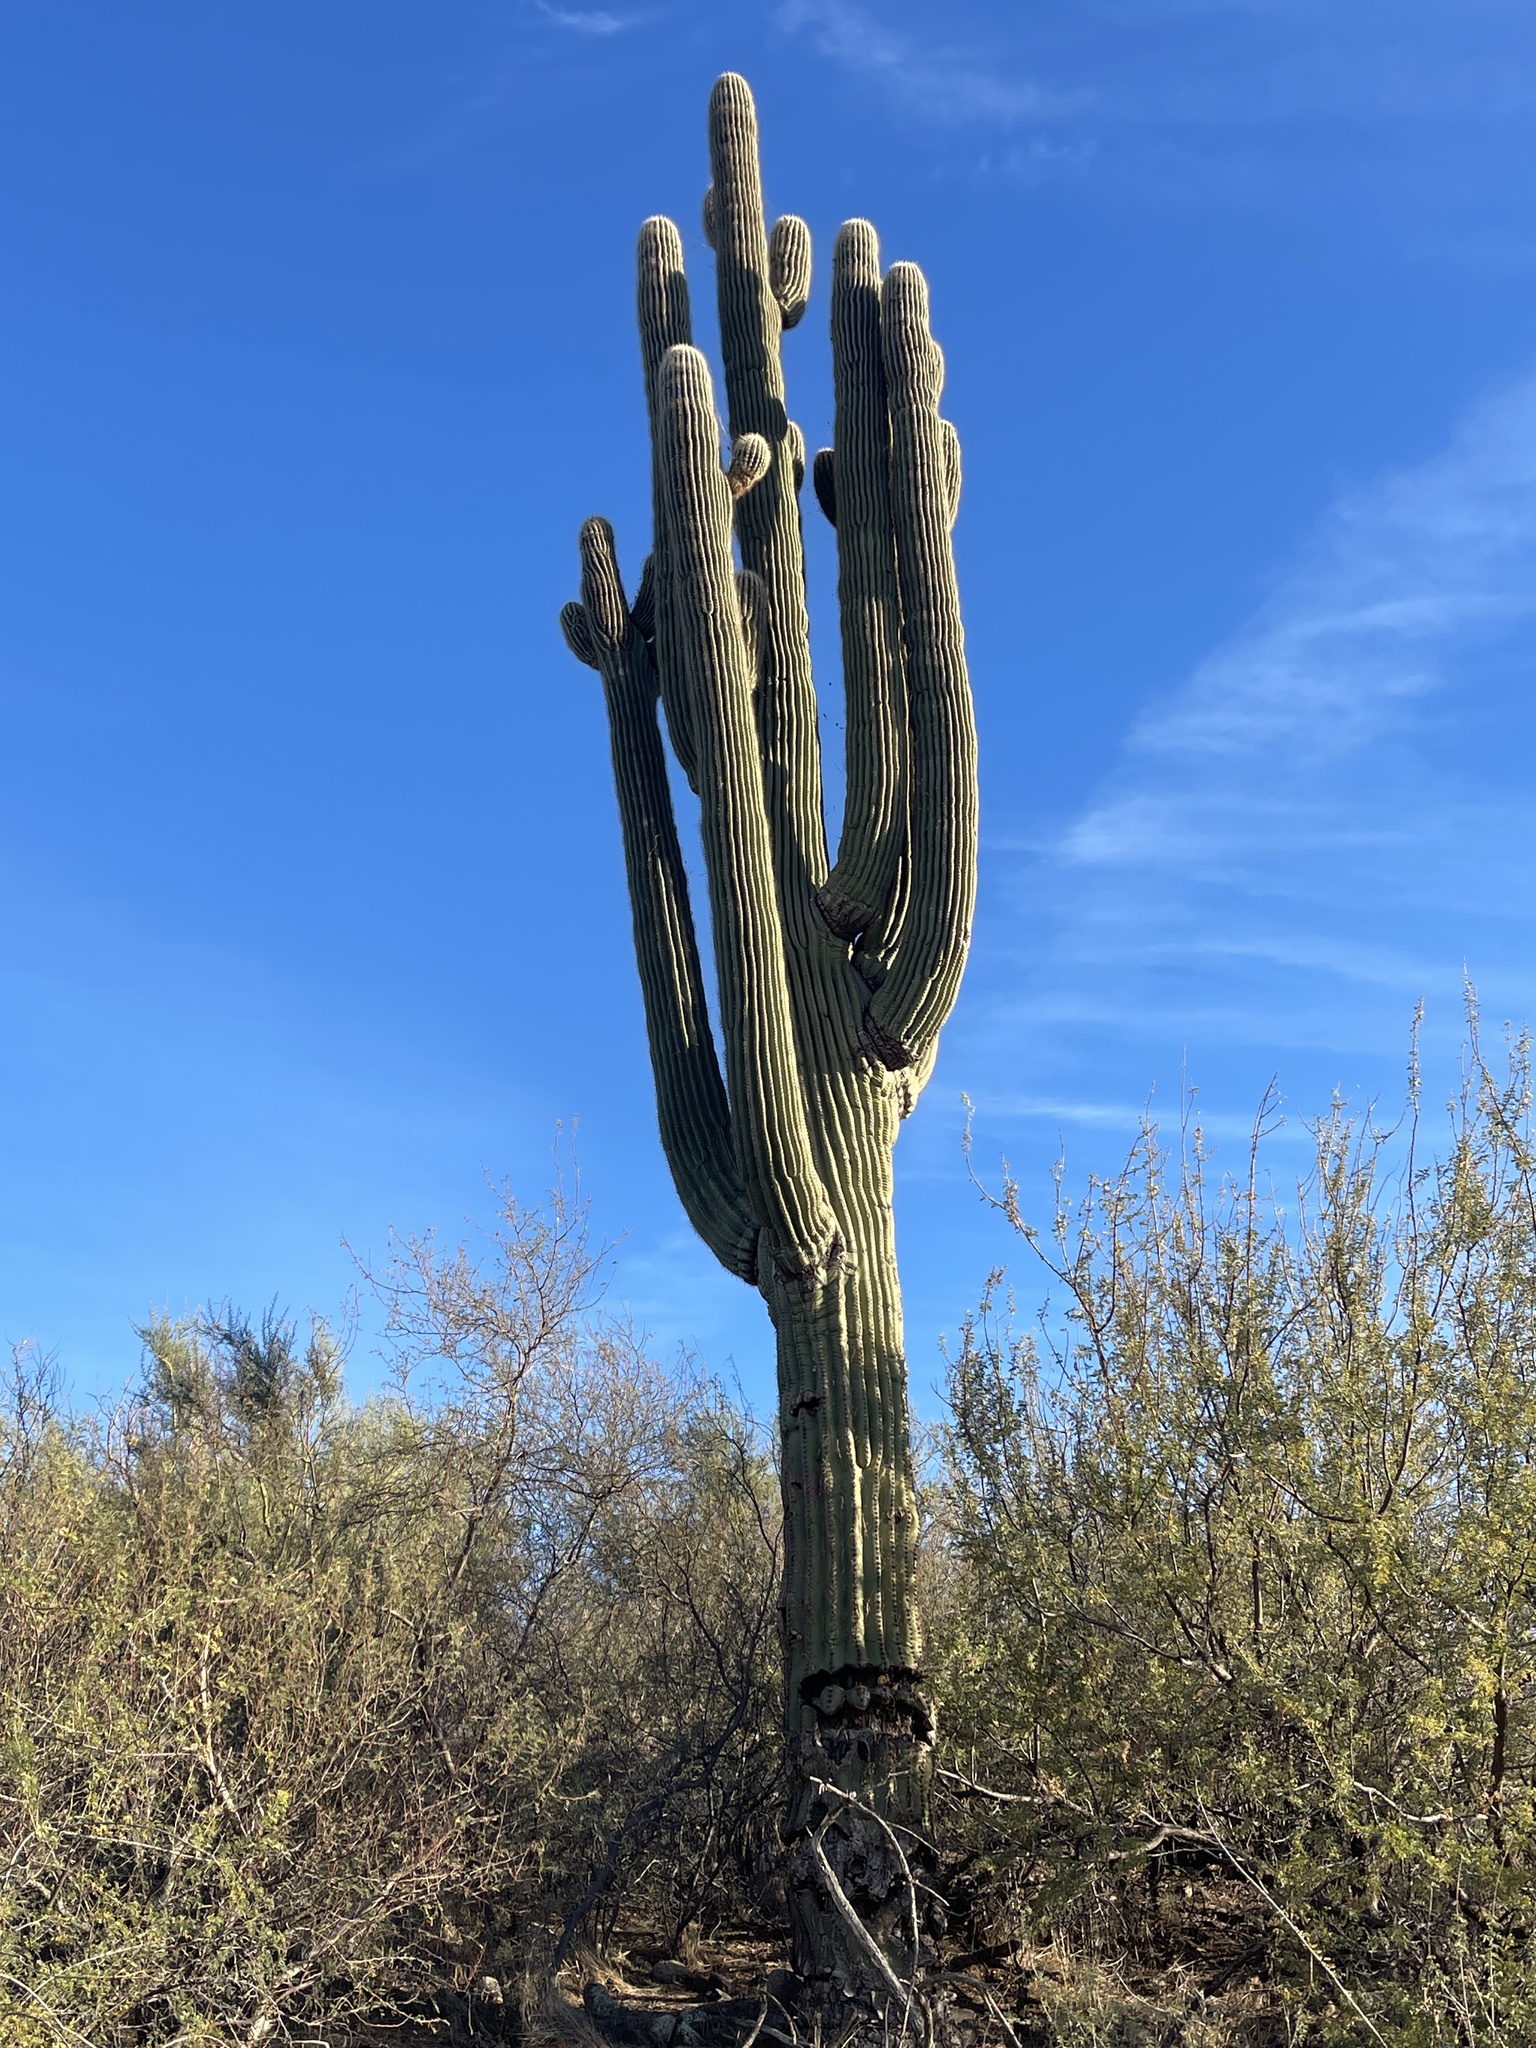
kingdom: Plantae
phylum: Tracheophyta
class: Magnoliopsida
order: Caryophyllales
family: Cactaceae
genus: Carnegiea
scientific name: Carnegiea gigantea
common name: Saguaro
